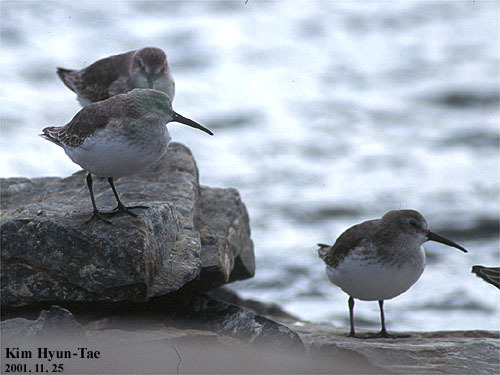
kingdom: Animalia
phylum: Chordata
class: Aves
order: Charadriiformes
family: Scolopacidae
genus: Calidris
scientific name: Calidris alpina
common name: Dunlin
